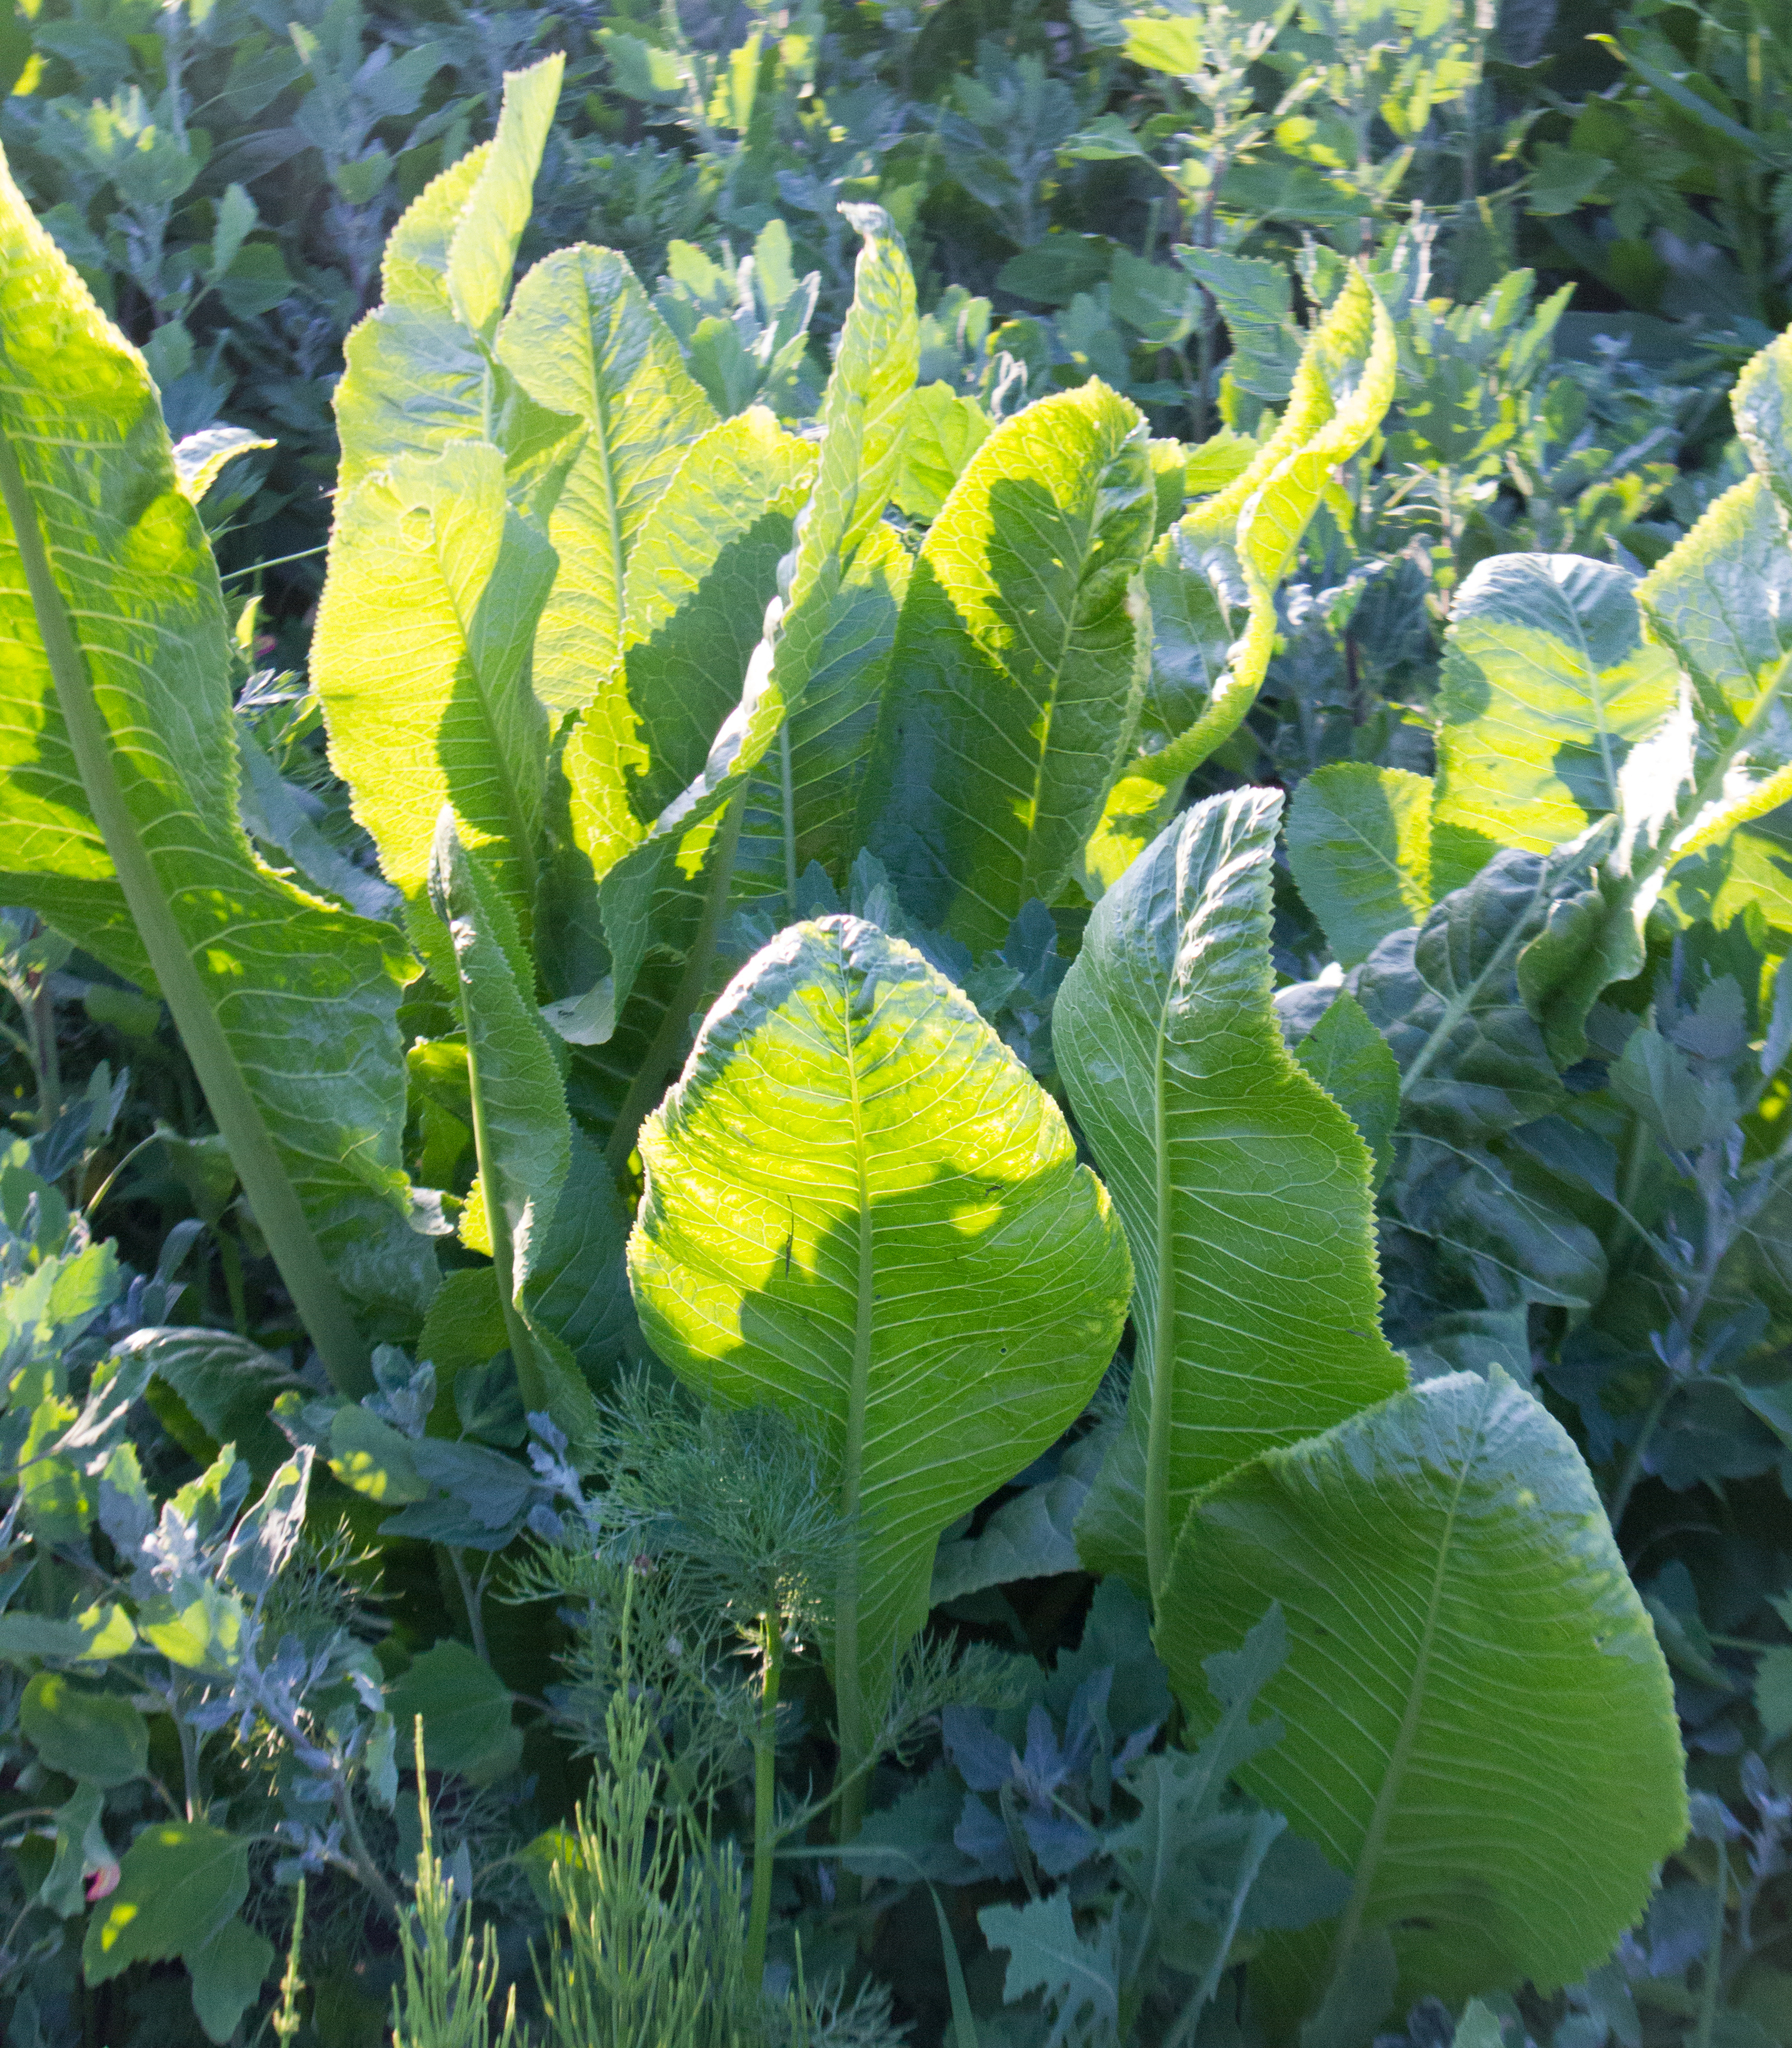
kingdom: Plantae
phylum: Tracheophyta
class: Magnoliopsida
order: Brassicales
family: Brassicaceae
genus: Armoracia
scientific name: Armoracia rusticana
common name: Horseradish
